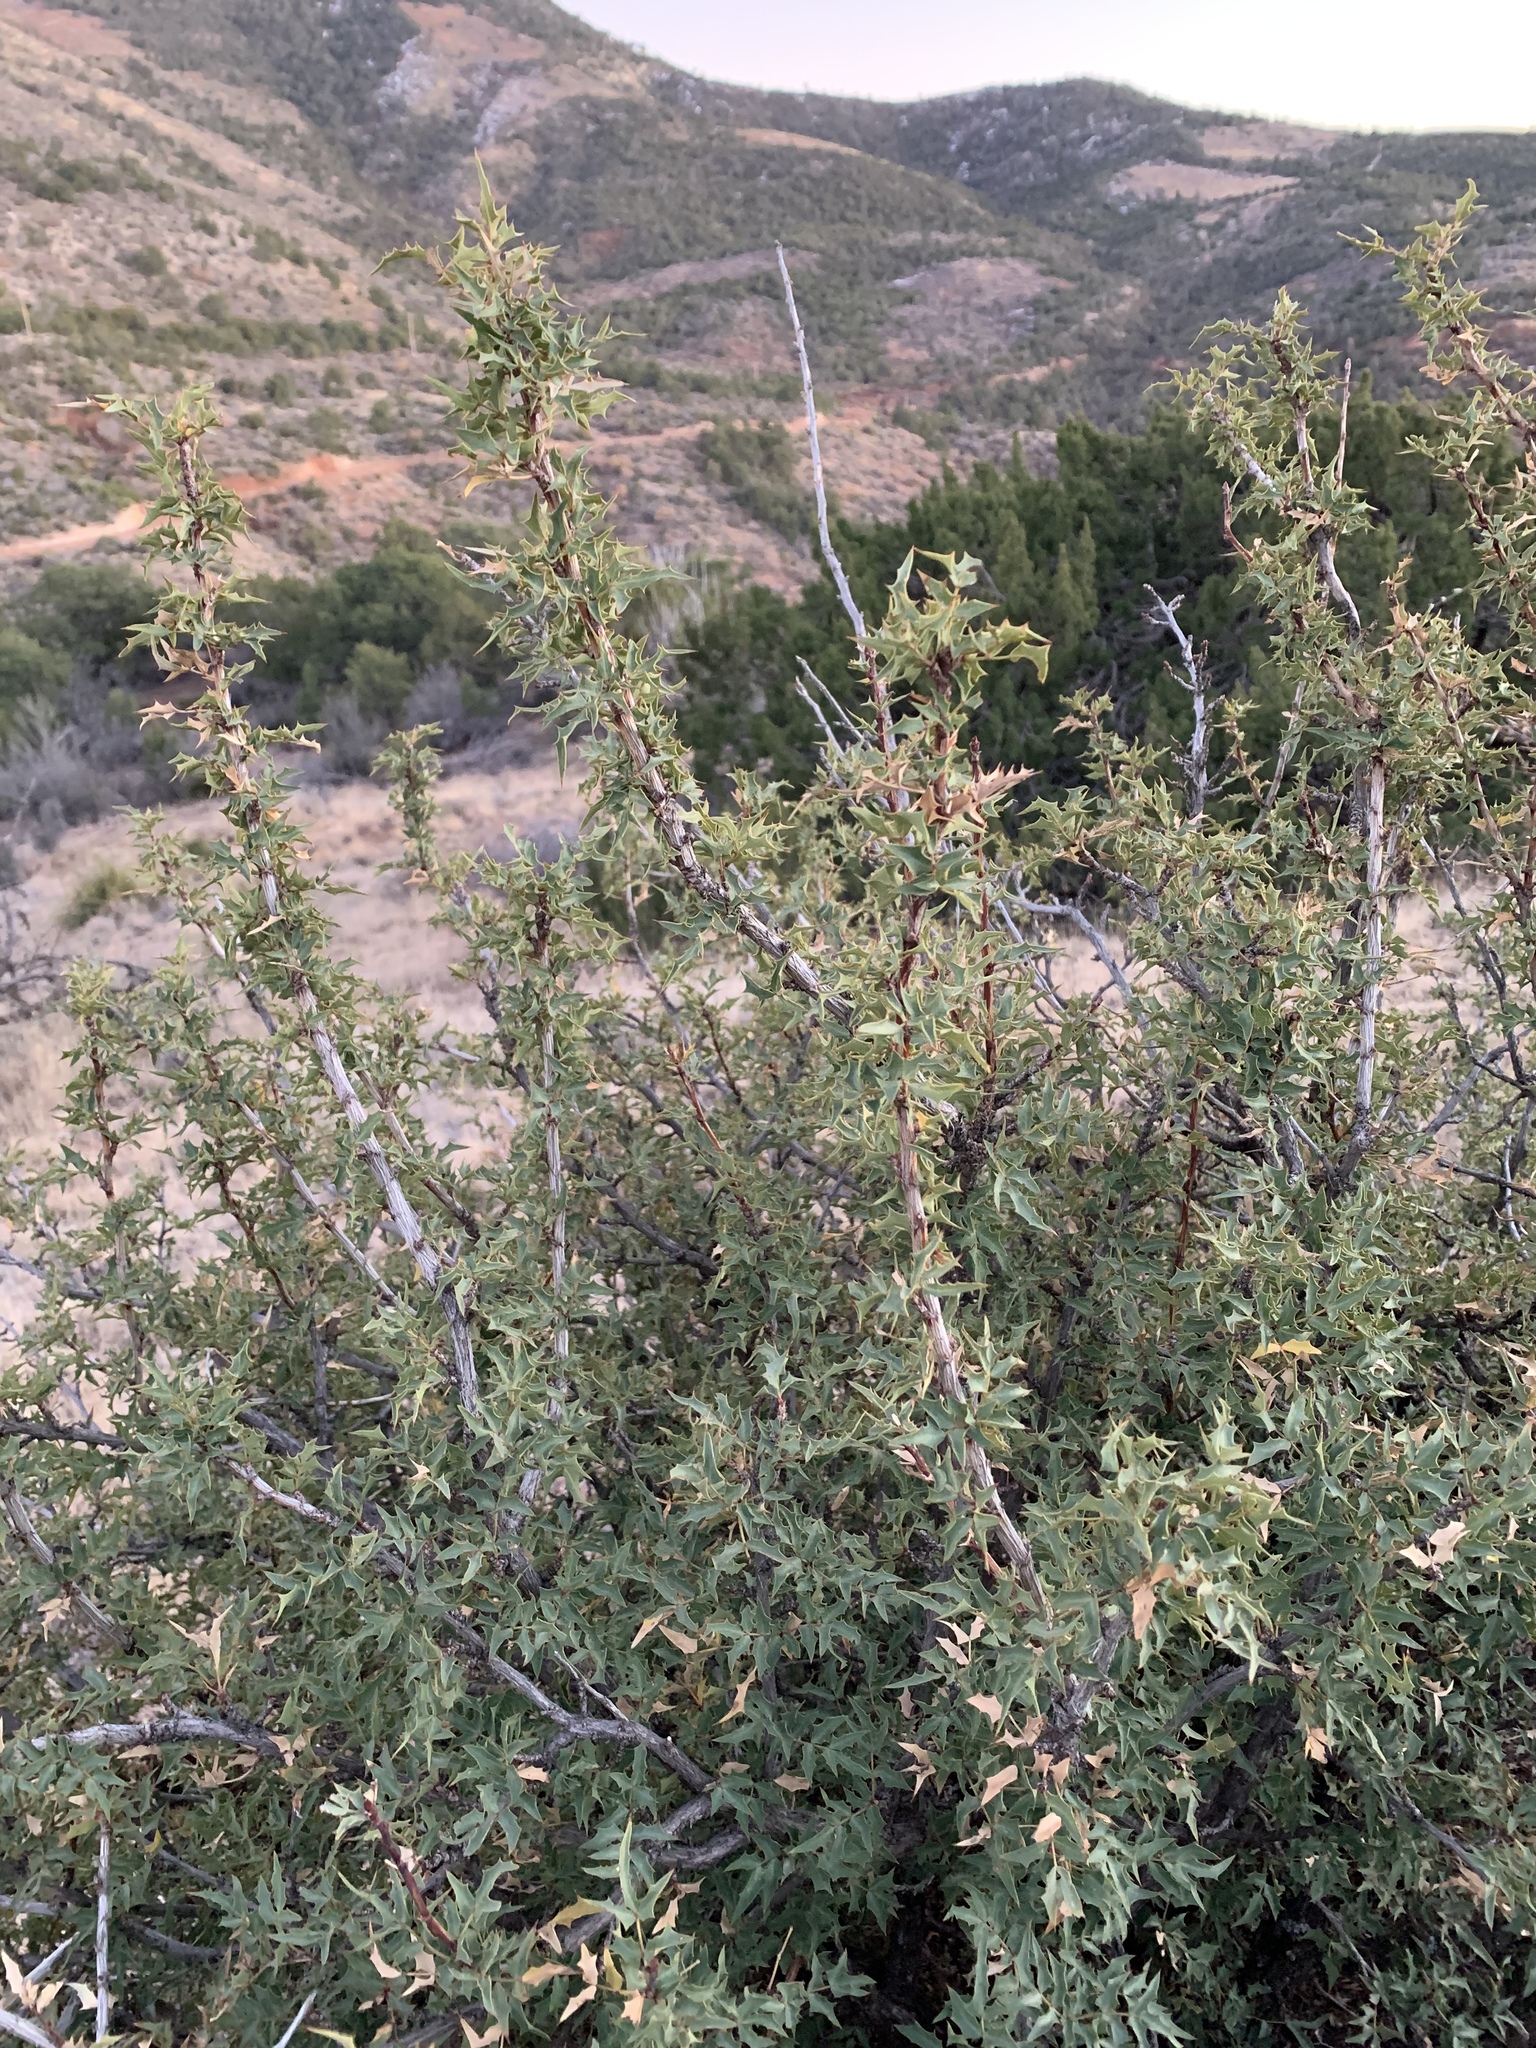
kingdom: Plantae
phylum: Tracheophyta
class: Magnoliopsida
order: Ranunculales
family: Berberidaceae
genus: Alloberberis
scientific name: Alloberberis haematocarpa
